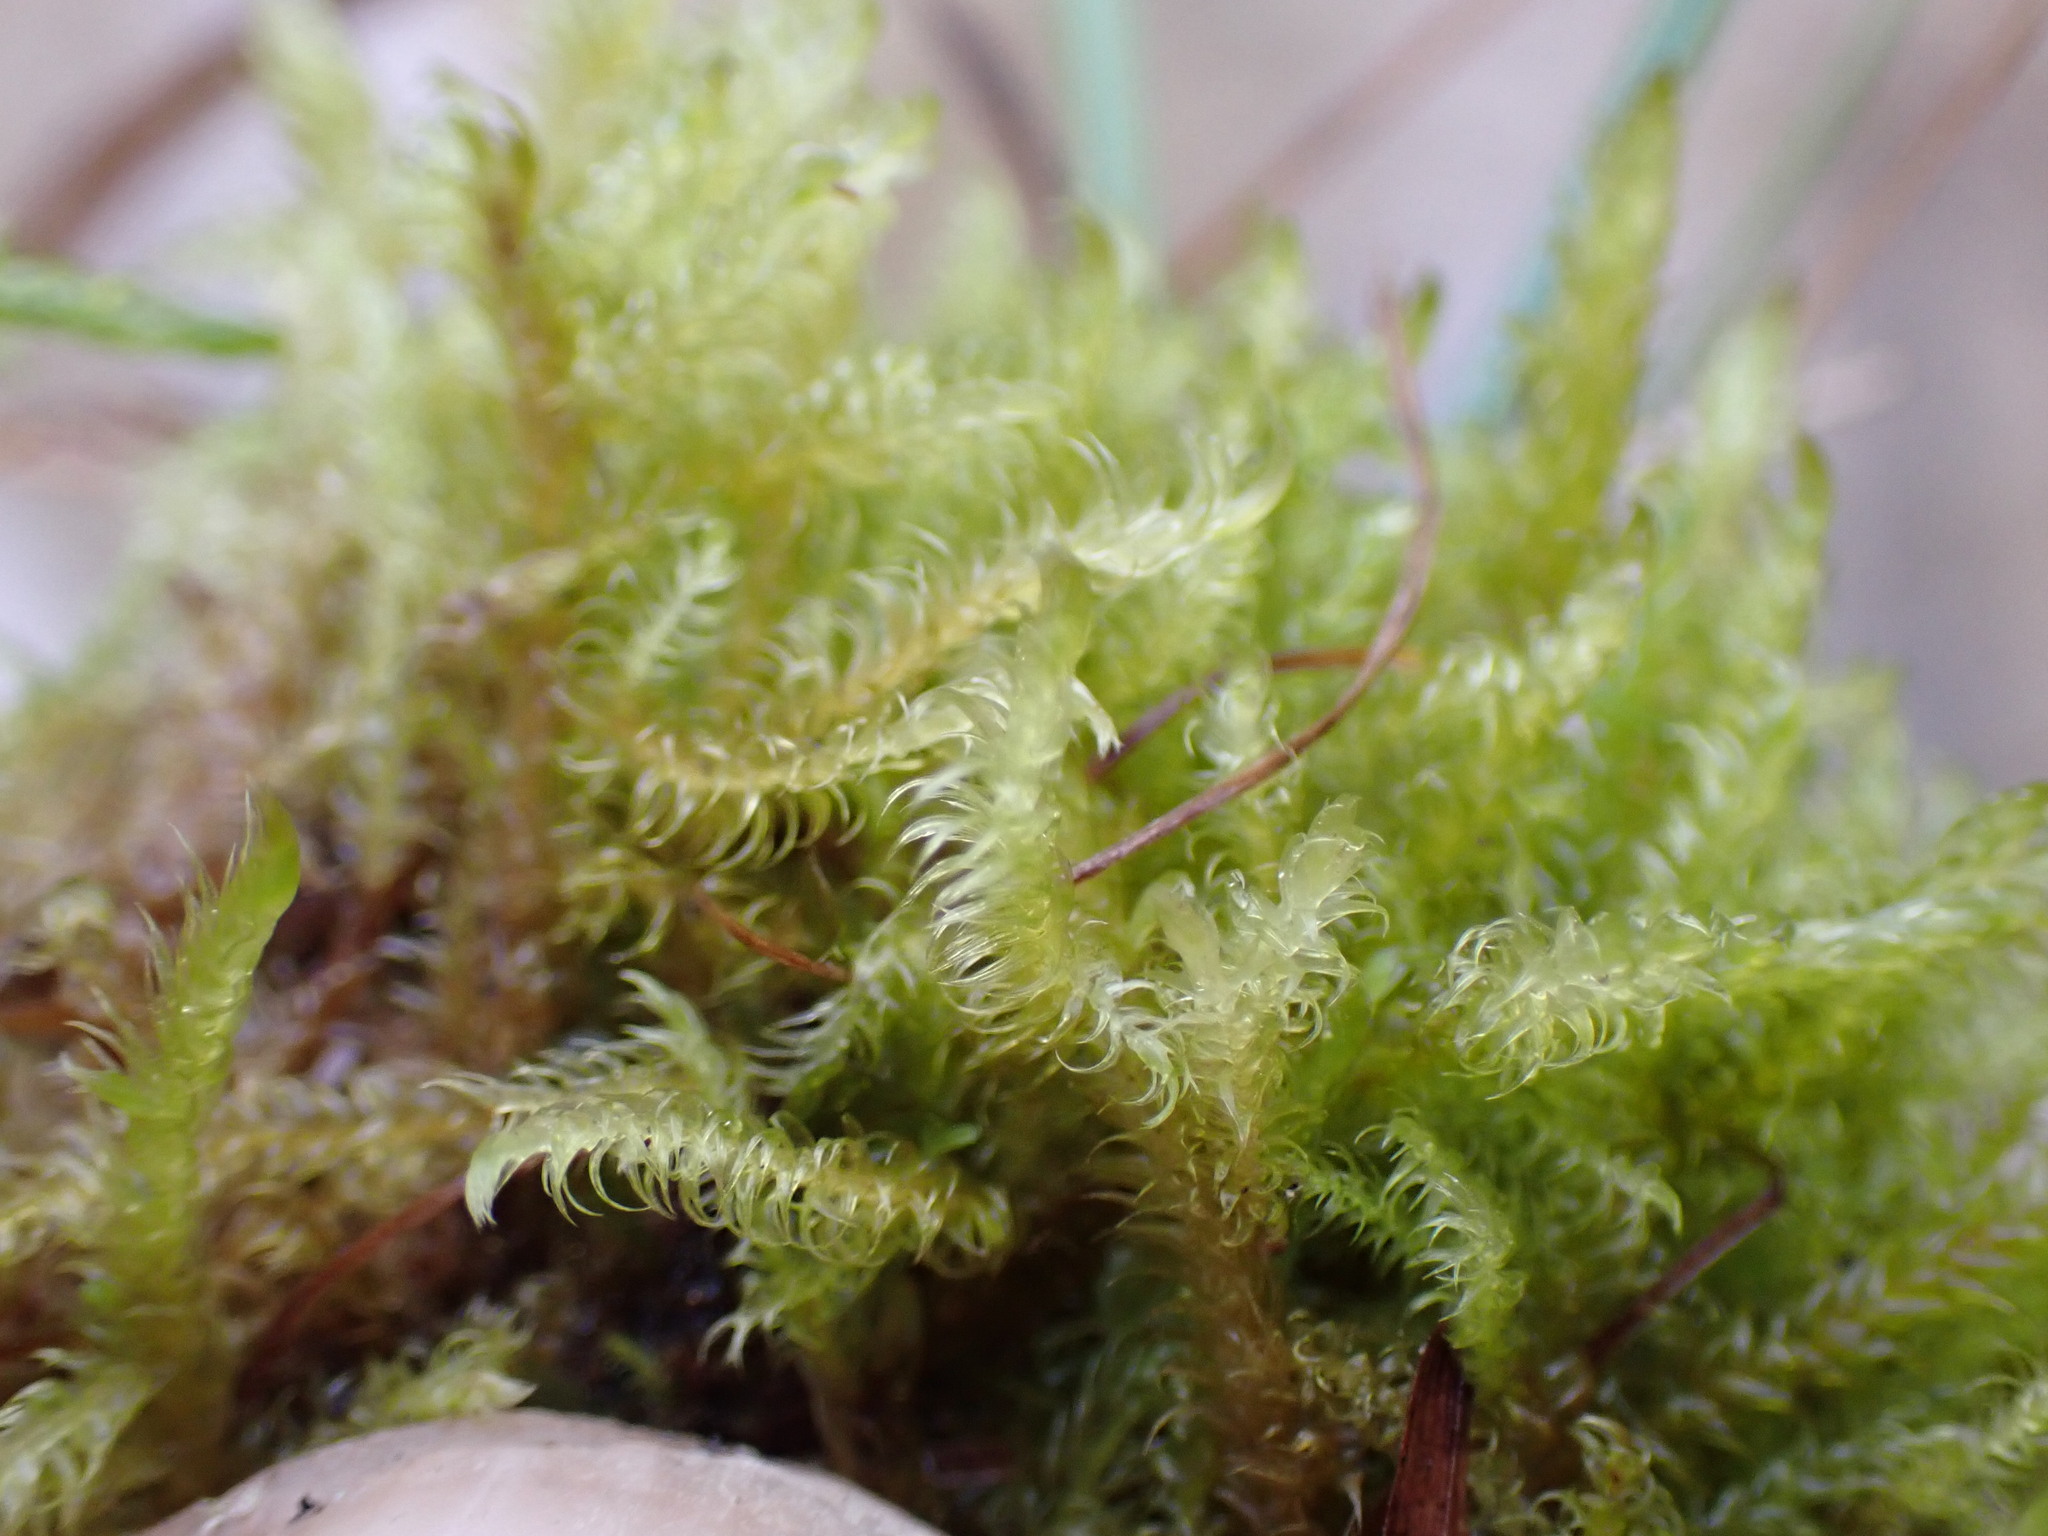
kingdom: Plantae
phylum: Bryophyta
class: Bryopsida
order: Hypnales
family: Scorpidiaceae
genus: Sanionia
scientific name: Sanionia uncinata
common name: Sickle moss
